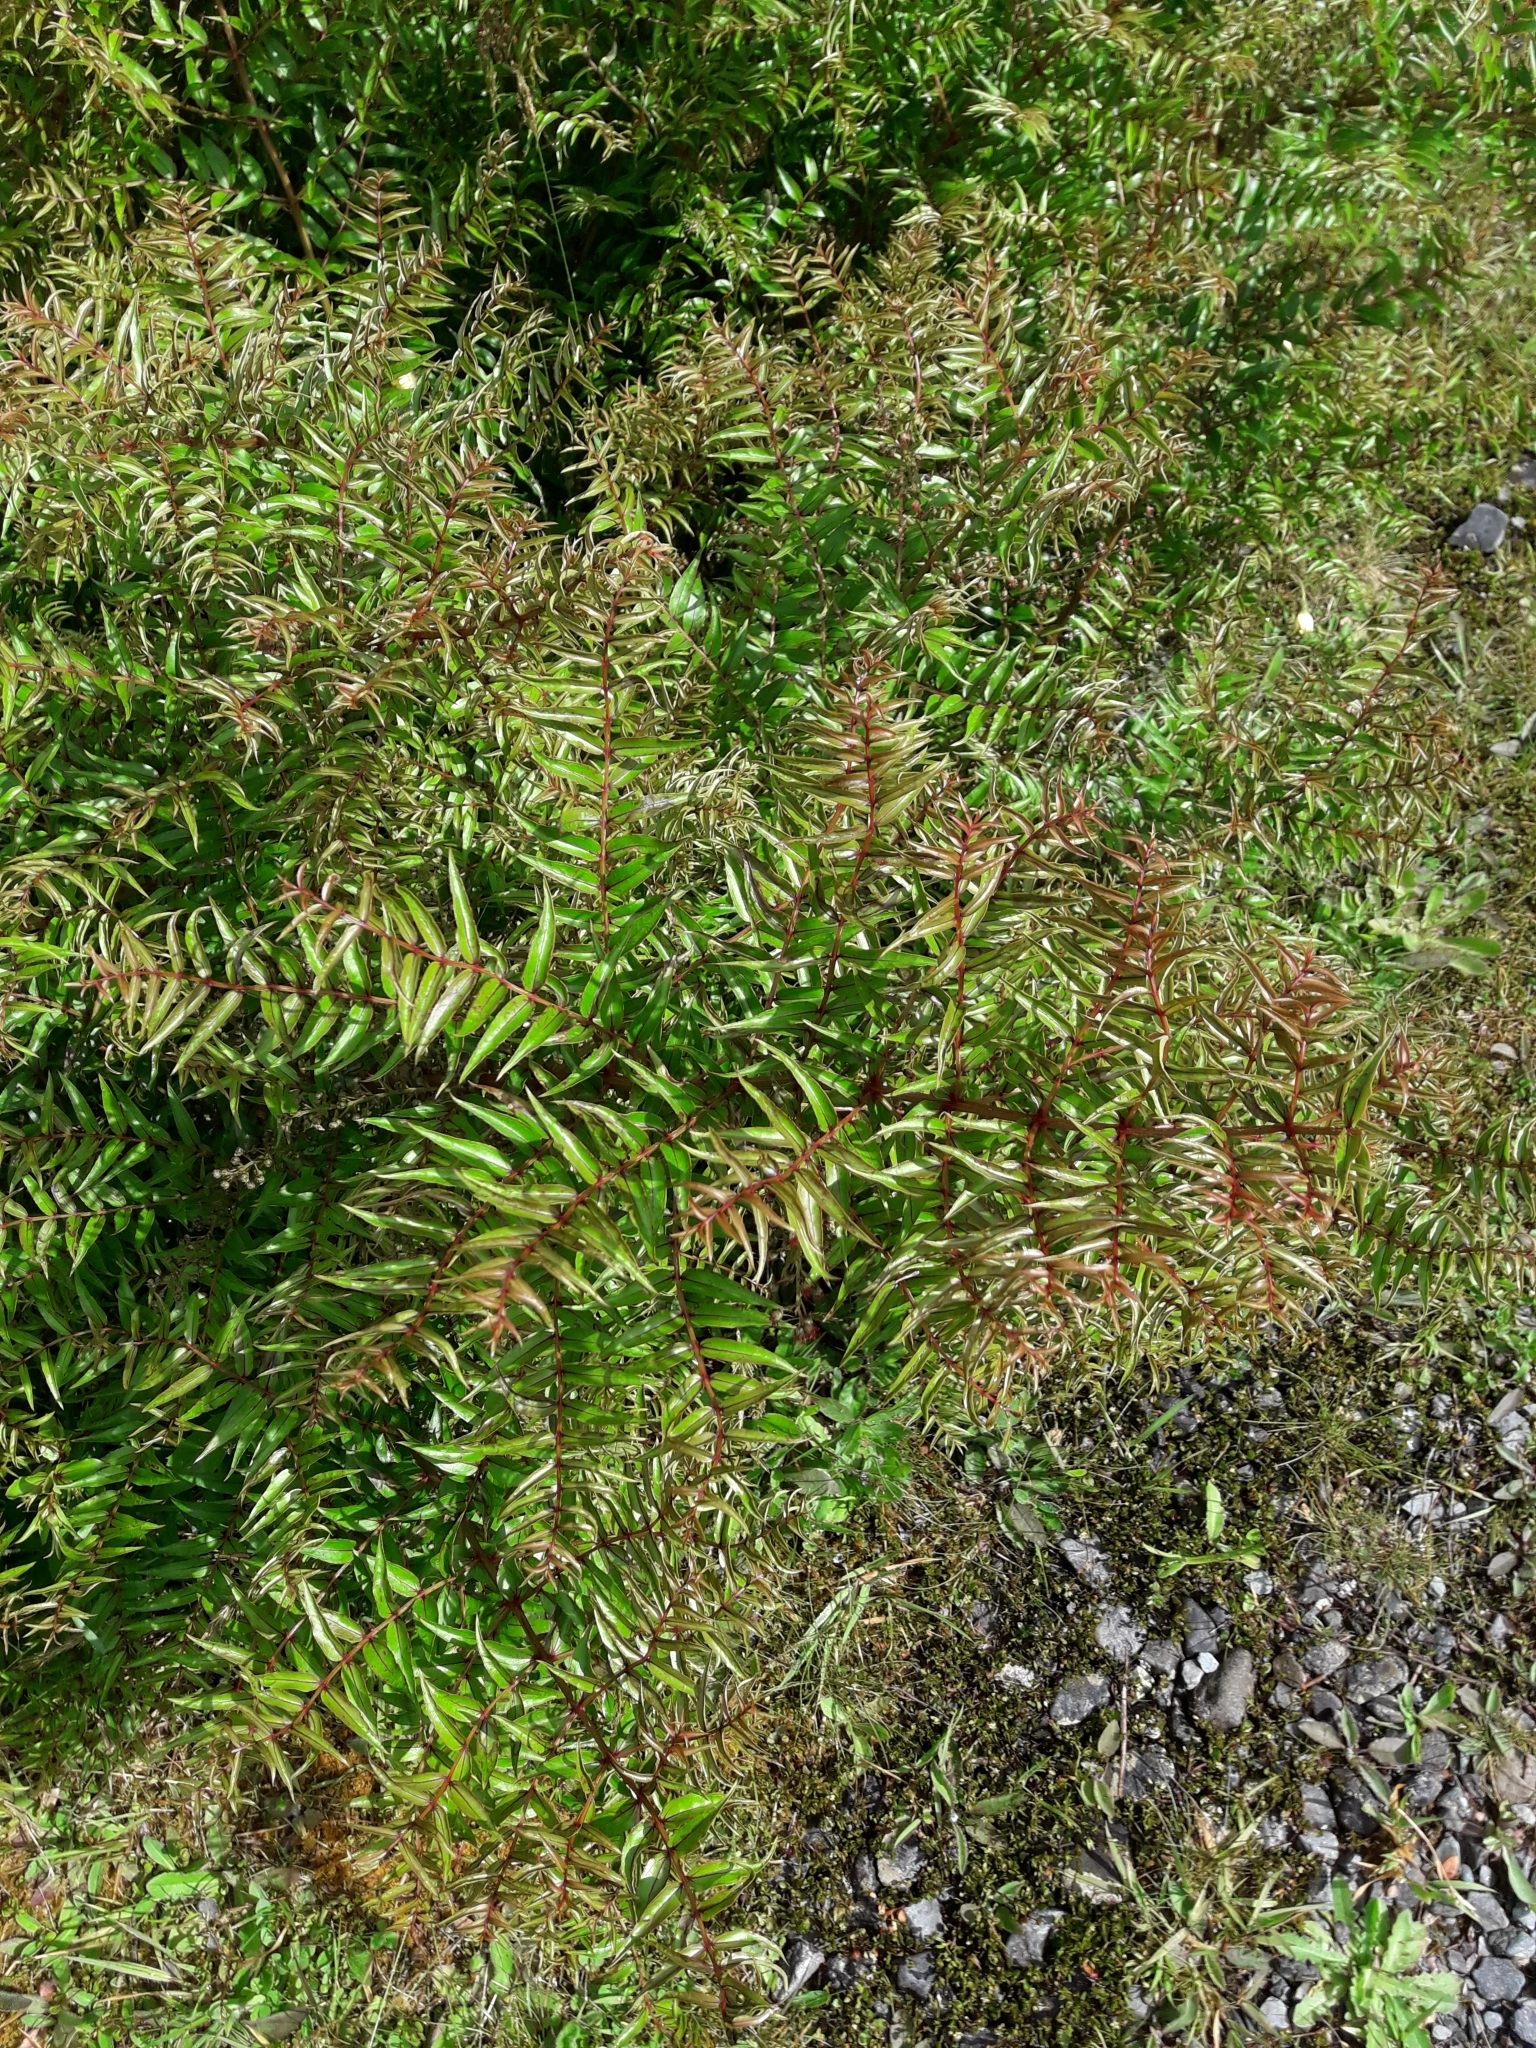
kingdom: Plantae
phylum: Tracheophyta
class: Magnoliopsida
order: Cucurbitales
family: Coriariaceae
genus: Coriaria
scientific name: Coriaria plumosa
